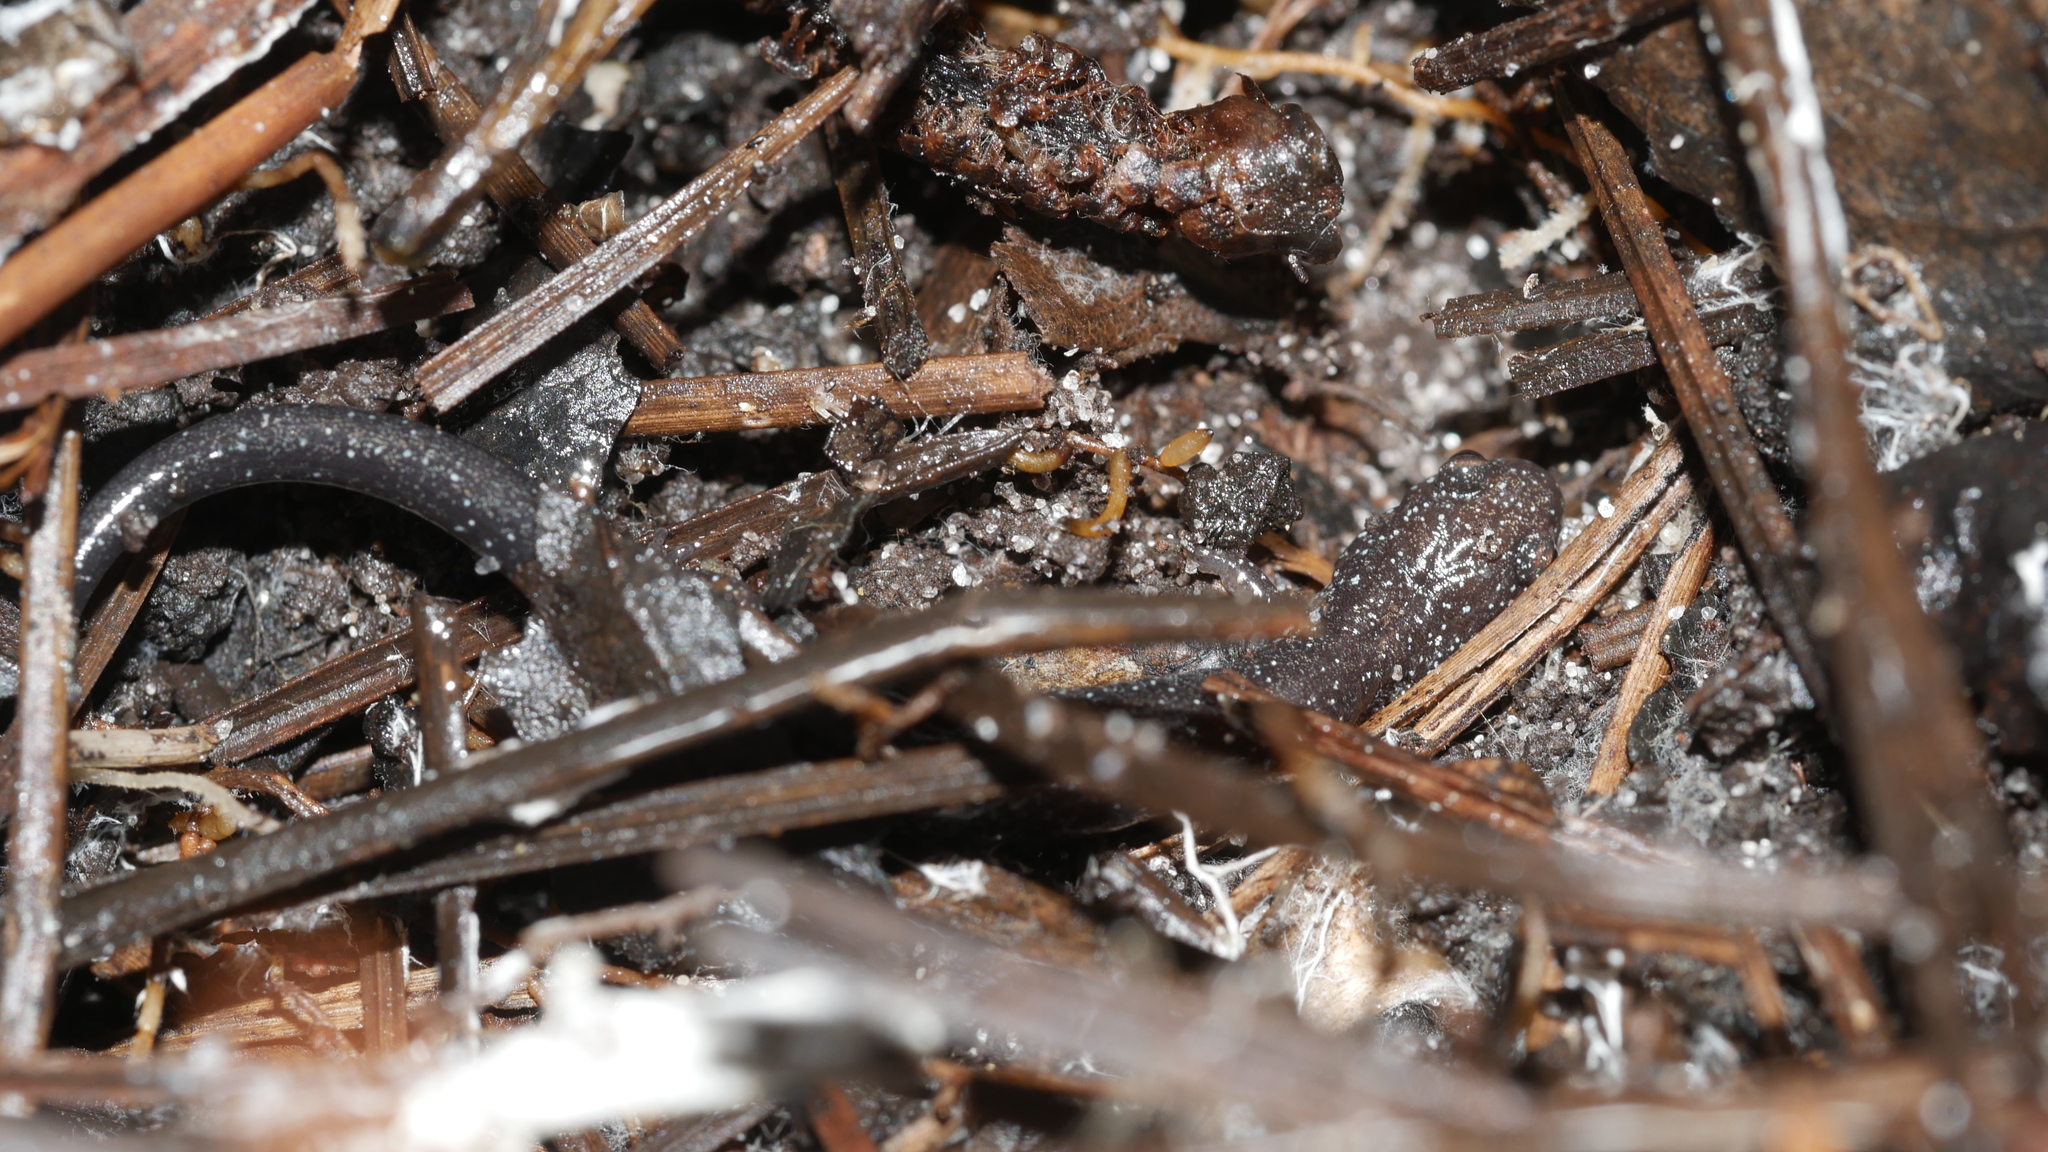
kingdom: Animalia
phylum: Chordata
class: Amphibia
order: Caudata
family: Plethodontidae
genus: Plethodon
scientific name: Plethodon cinereus
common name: Redback salamander
